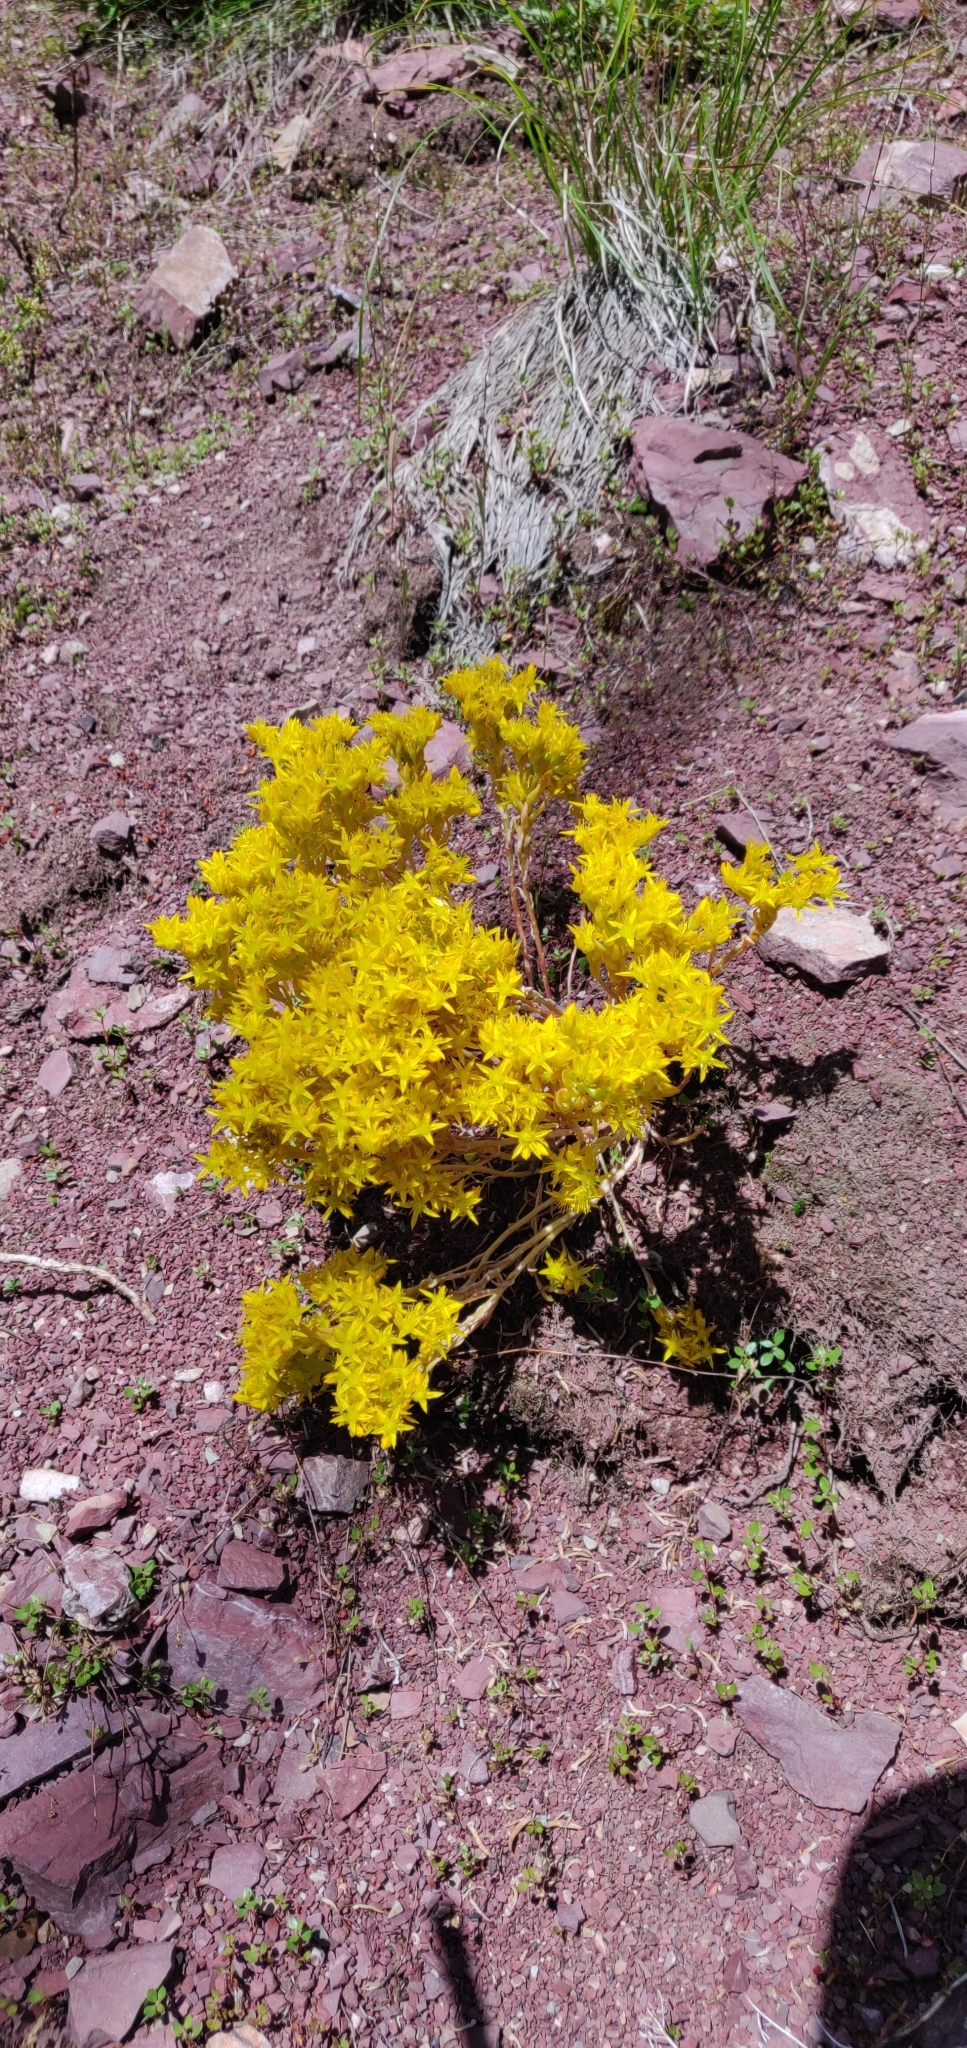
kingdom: Plantae
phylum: Tracheophyta
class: Magnoliopsida
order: Saxifragales
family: Crassulaceae
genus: Sedum
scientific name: Sedum lanceolatum
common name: Common stonecrop
